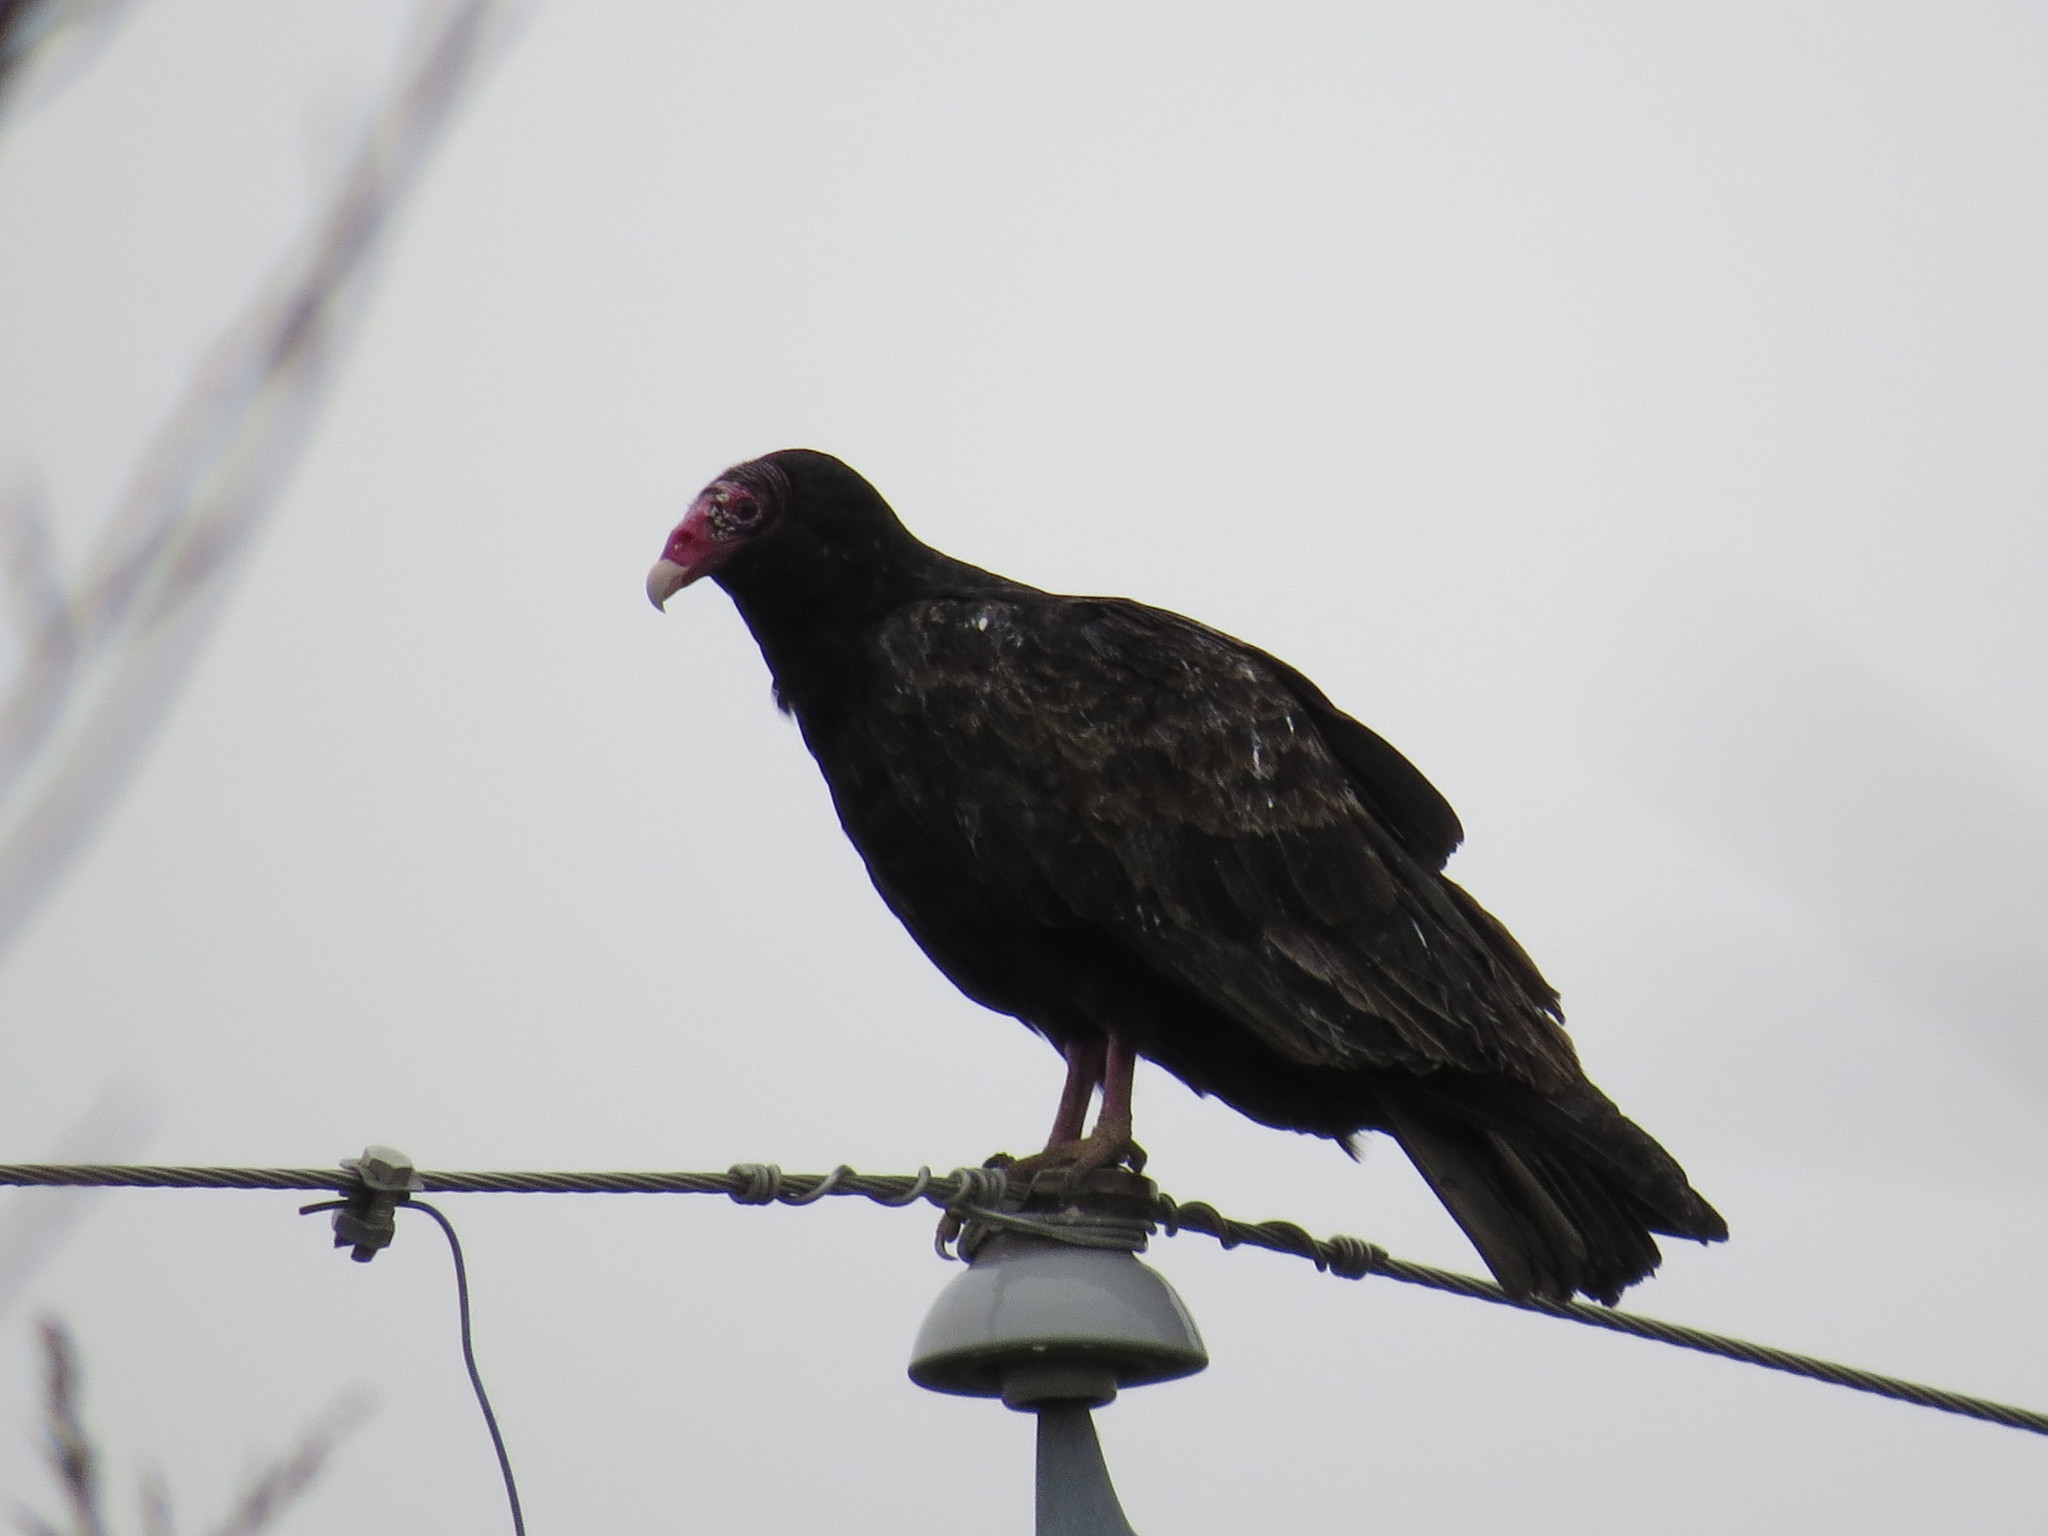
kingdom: Animalia
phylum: Chordata
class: Aves
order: Accipitriformes
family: Cathartidae
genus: Cathartes
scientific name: Cathartes aura
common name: Turkey vulture
